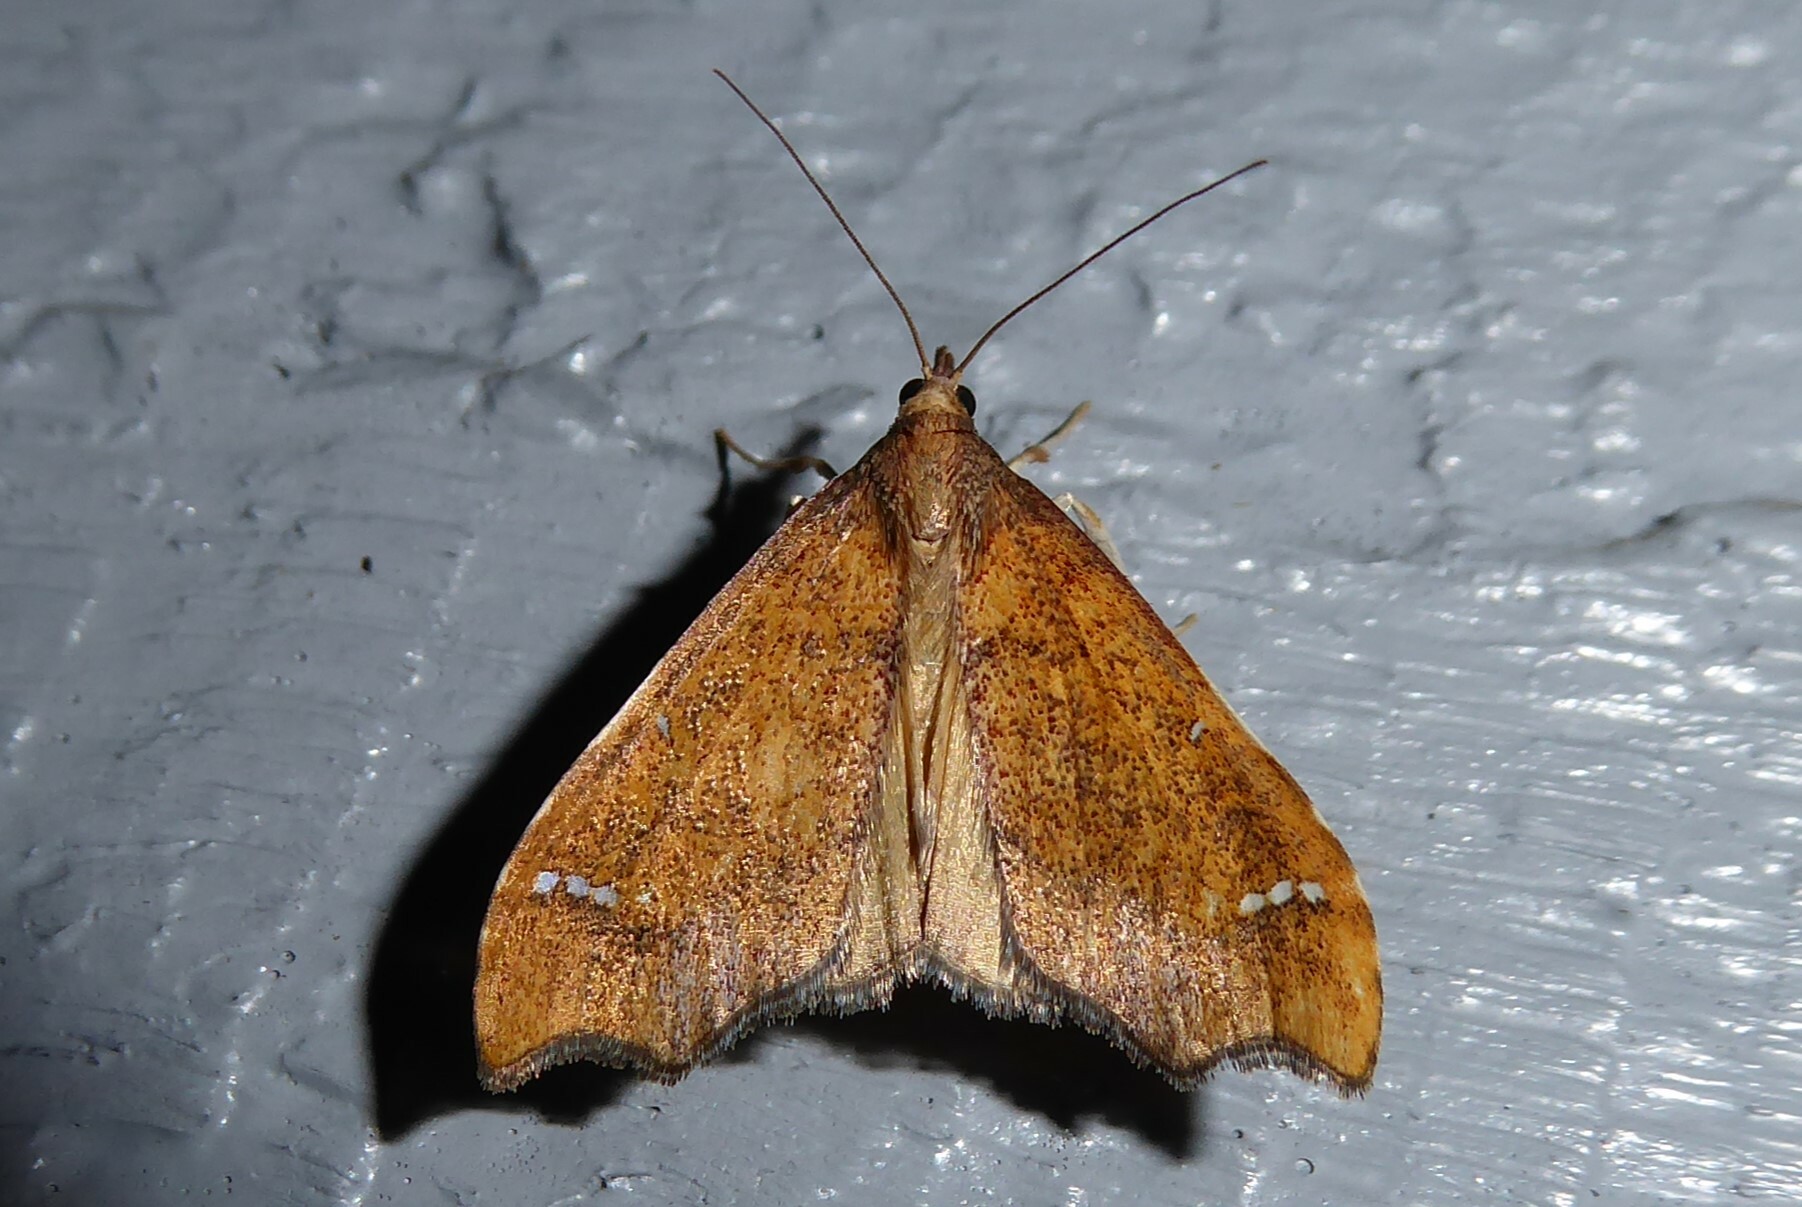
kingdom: Animalia
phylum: Arthropoda
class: Insecta
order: Lepidoptera
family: Crambidae
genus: Deana
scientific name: Deana hybreasalis
